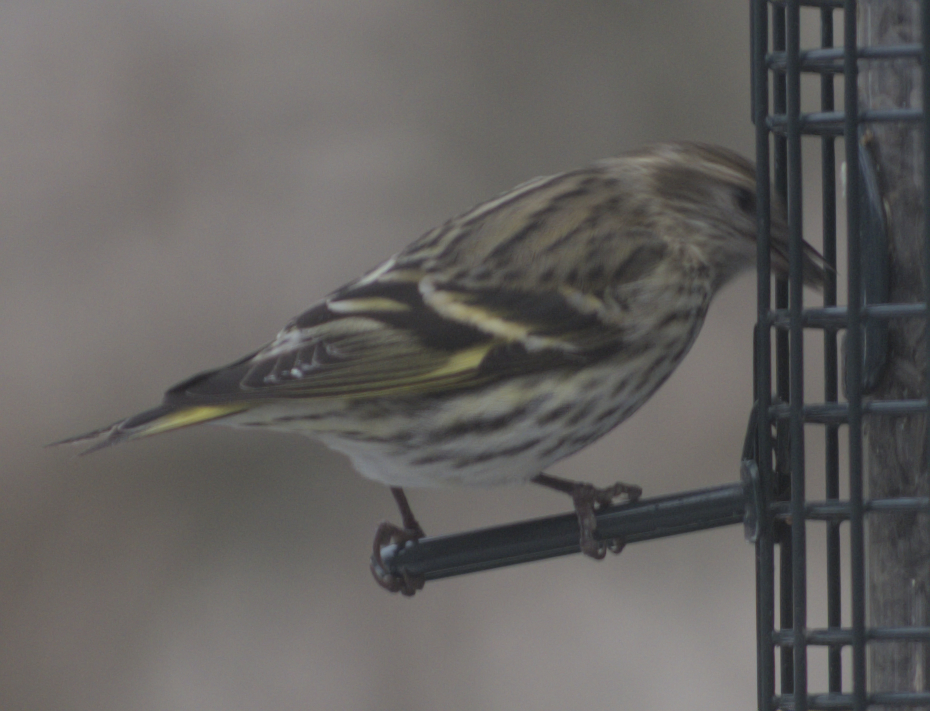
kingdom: Animalia
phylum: Chordata
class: Aves
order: Passeriformes
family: Fringillidae
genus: Spinus
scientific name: Spinus pinus
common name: Pine siskin
